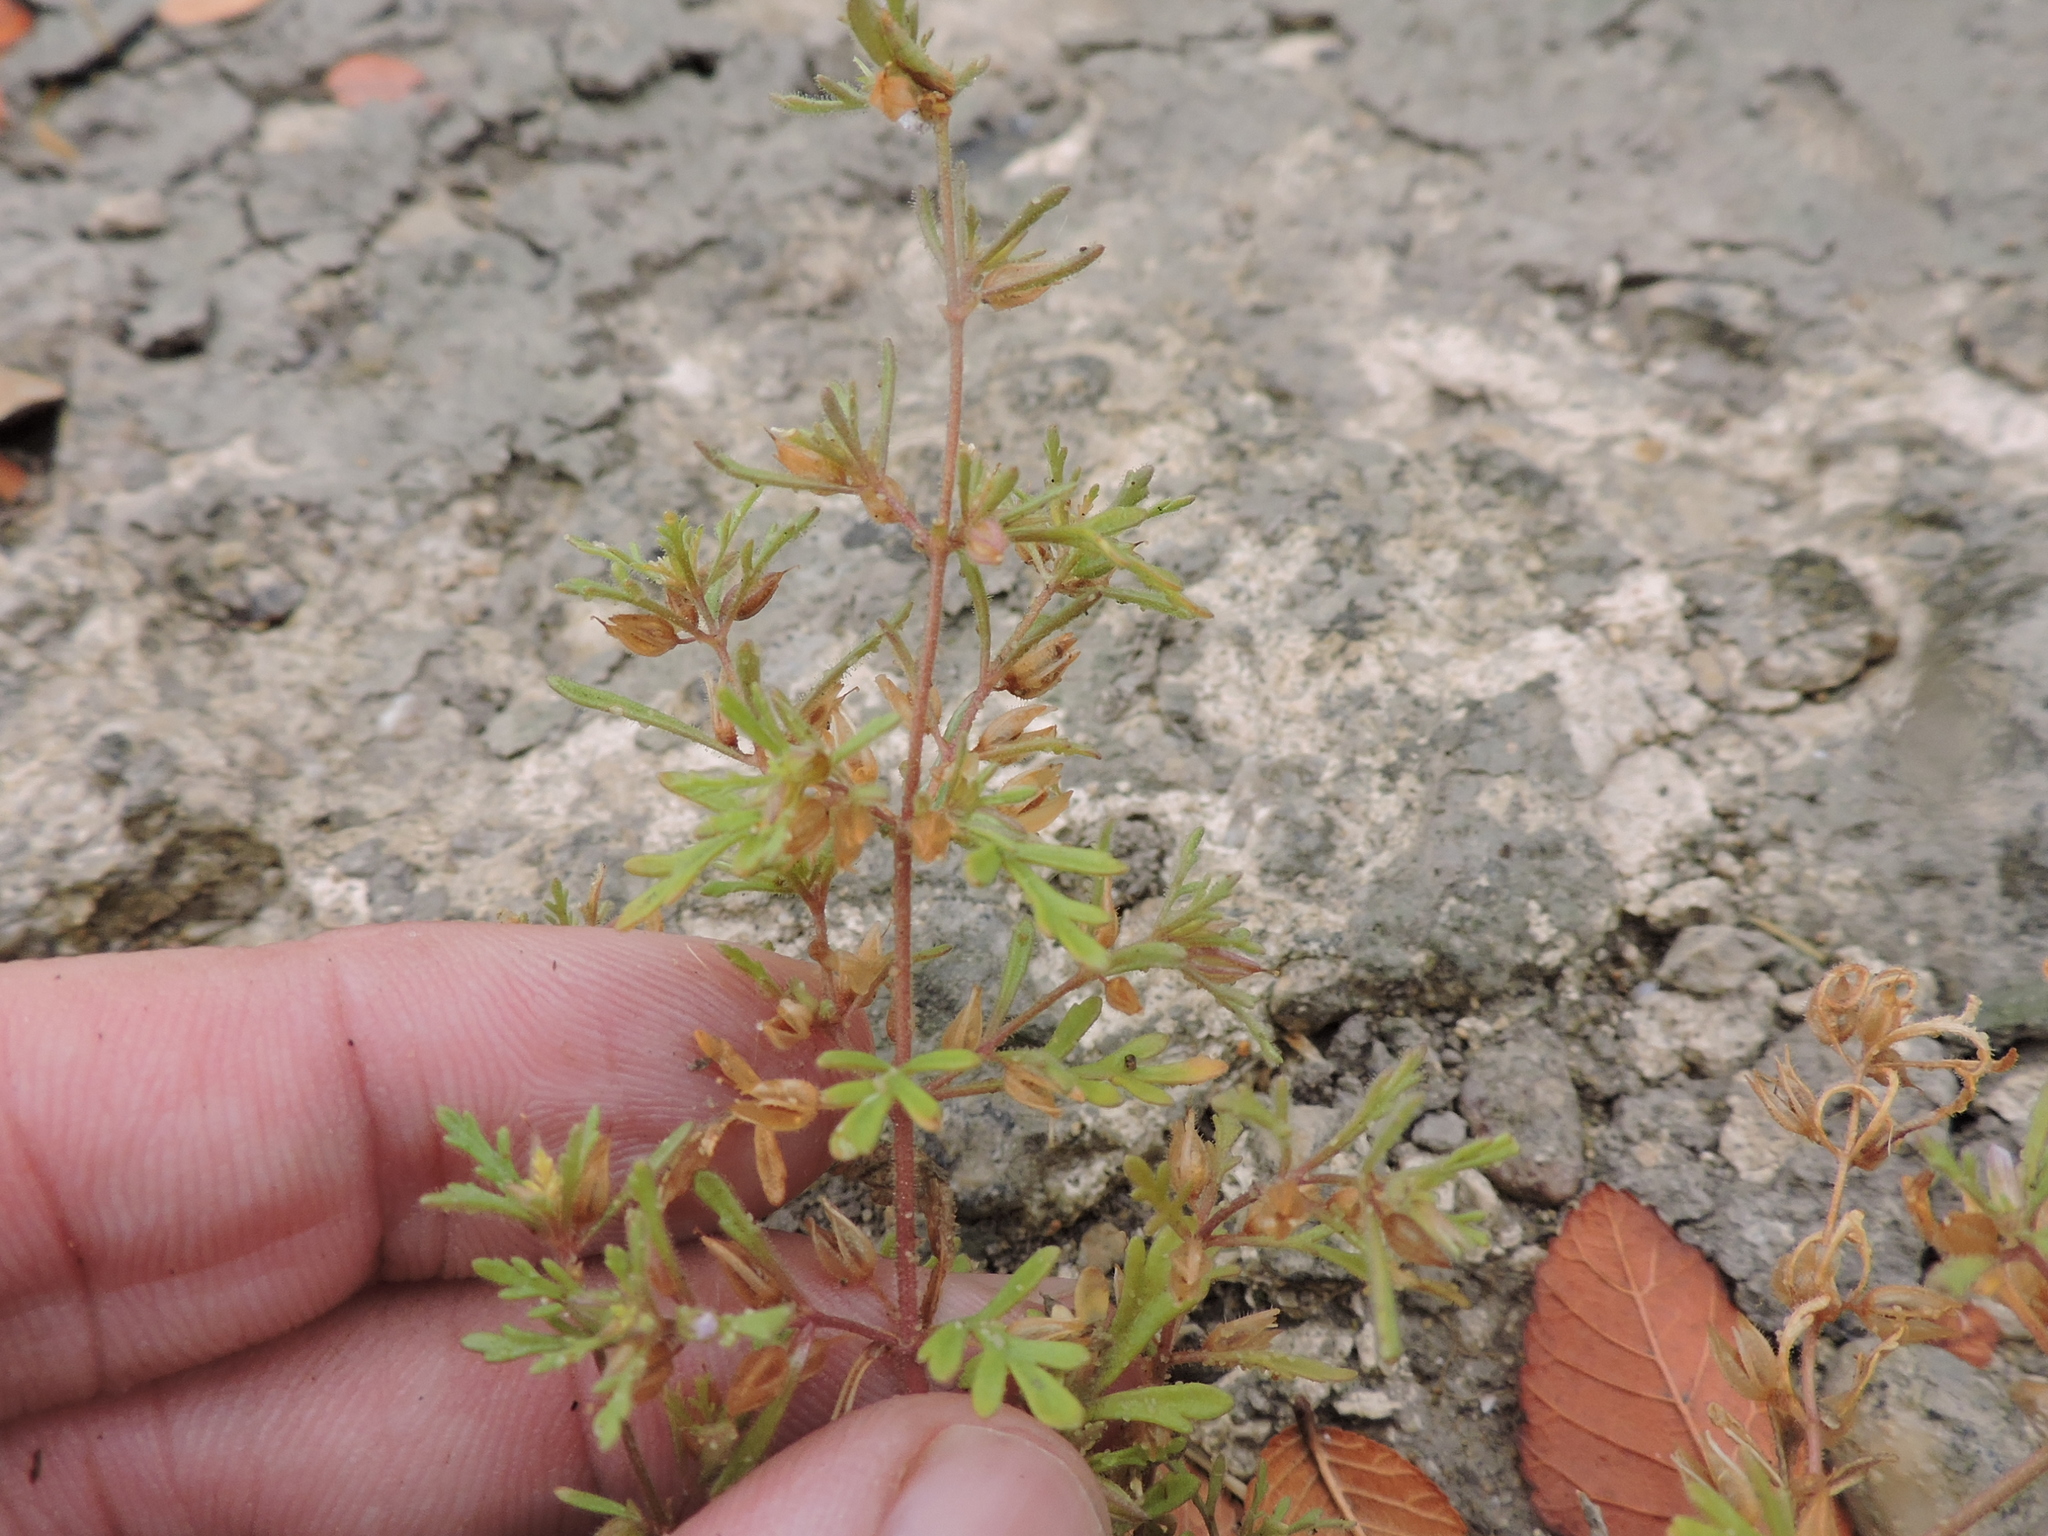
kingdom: Plantae
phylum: Tracheophyta
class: Magnoliopsida
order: Lamiales
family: Plantaginaceae
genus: Leucospora
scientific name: Leucospora multifida
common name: Narrow-leaf paleseed
